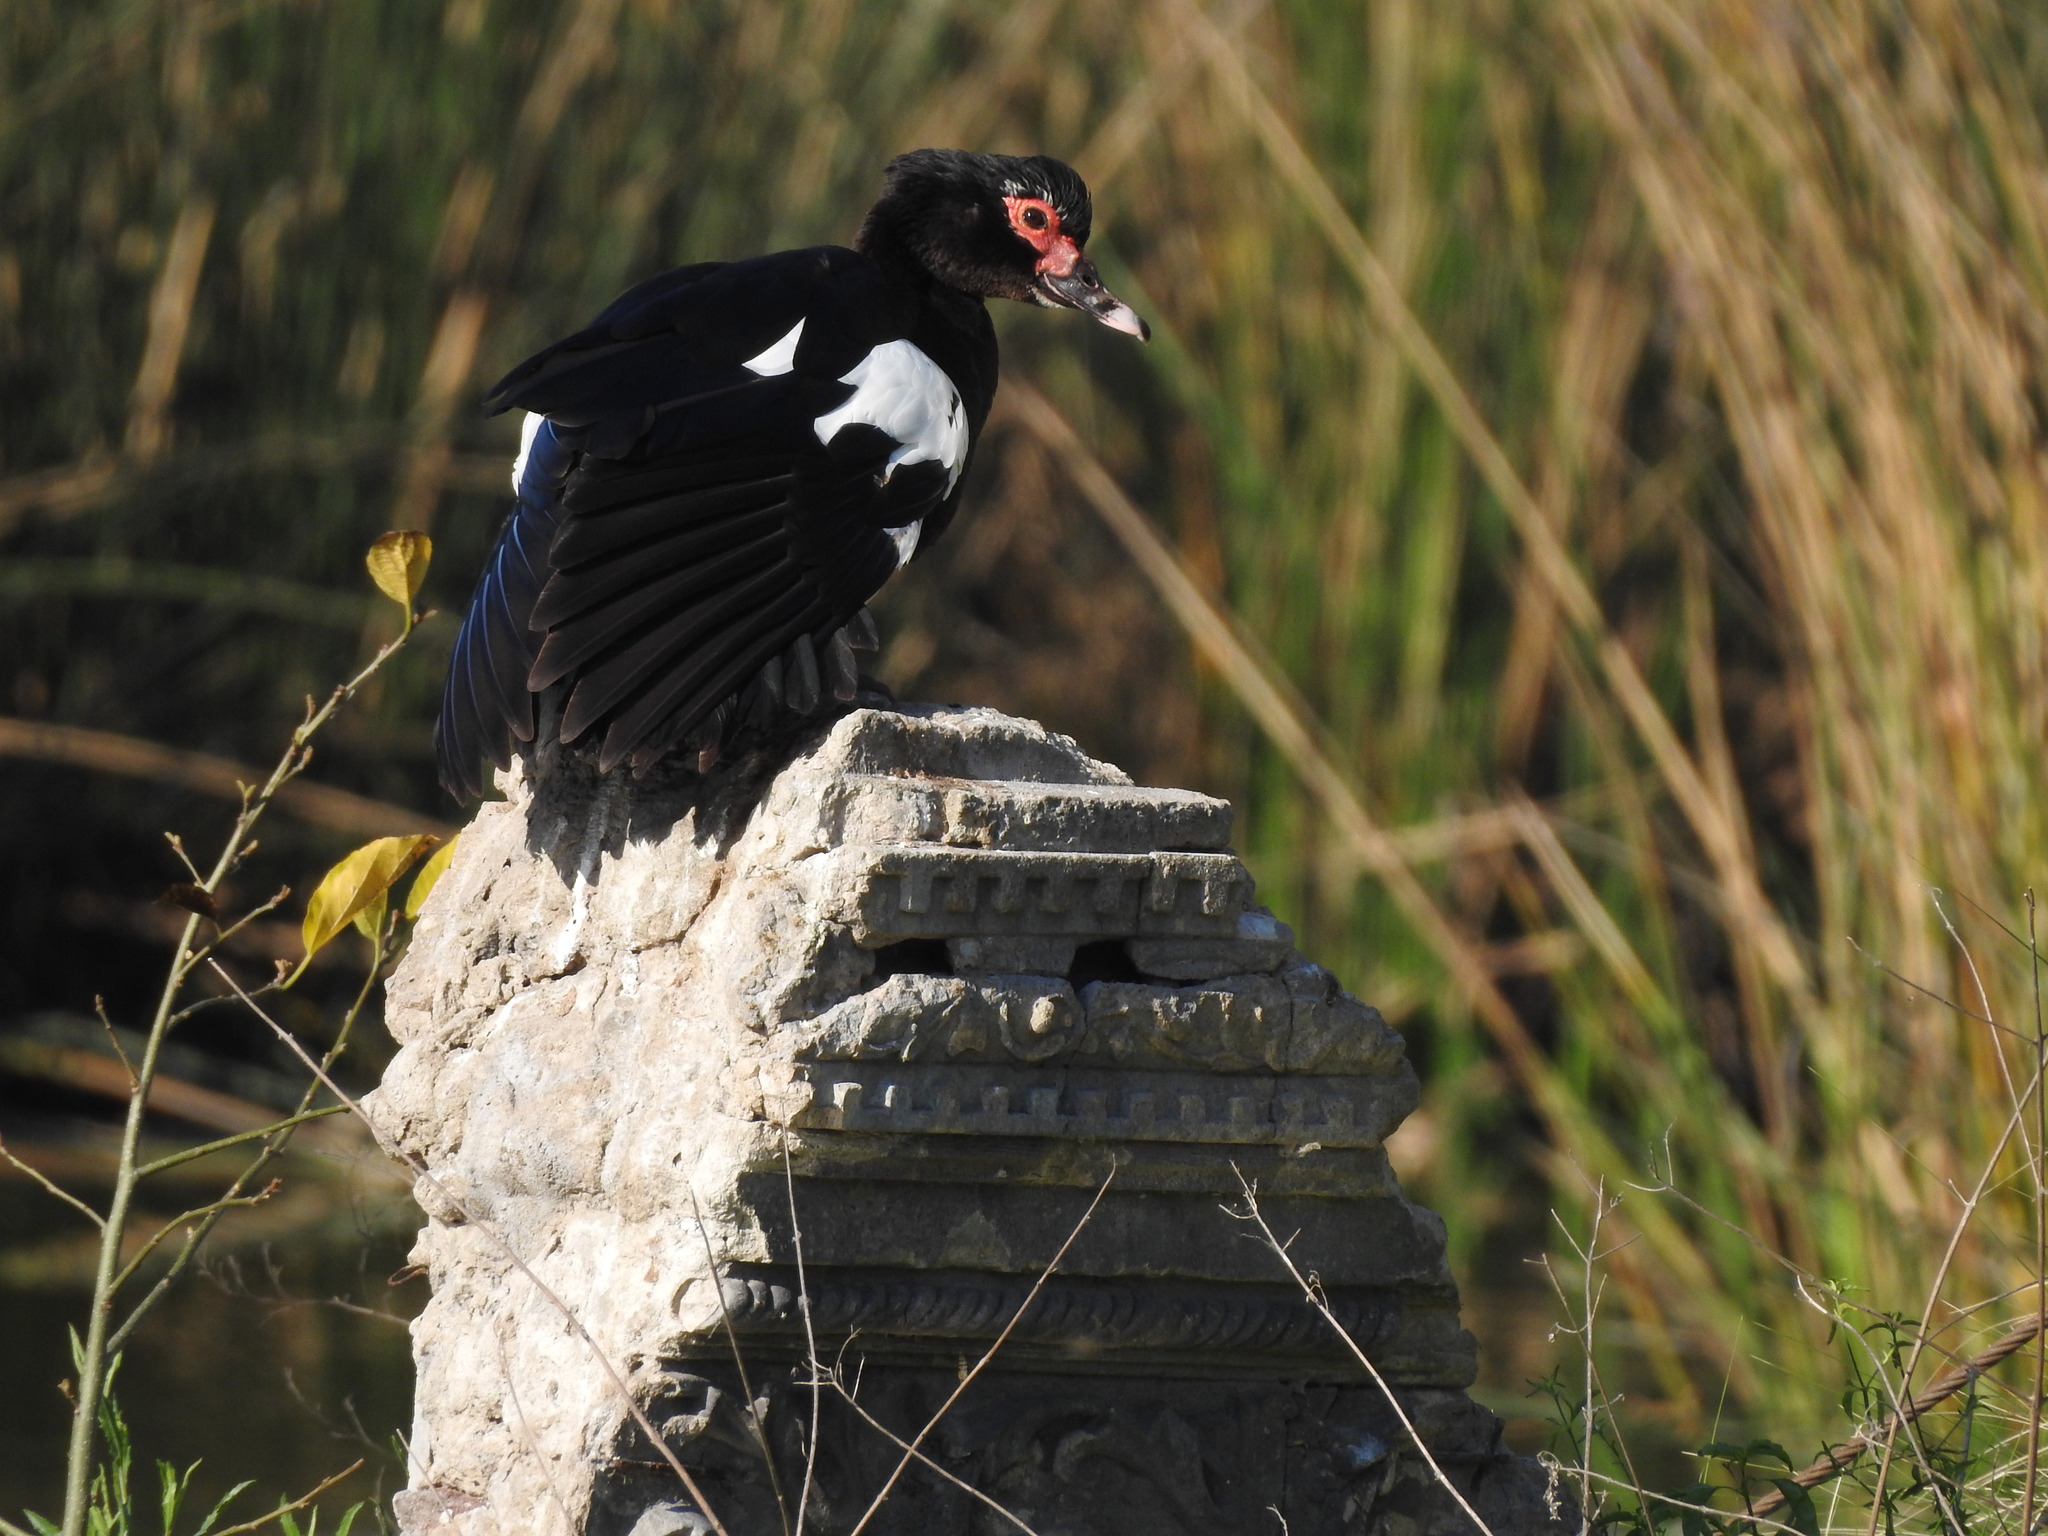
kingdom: Animalia
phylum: Chordata
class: Aves
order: Anseriformes
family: Anatidae
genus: Cairina
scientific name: Cairina moschata
